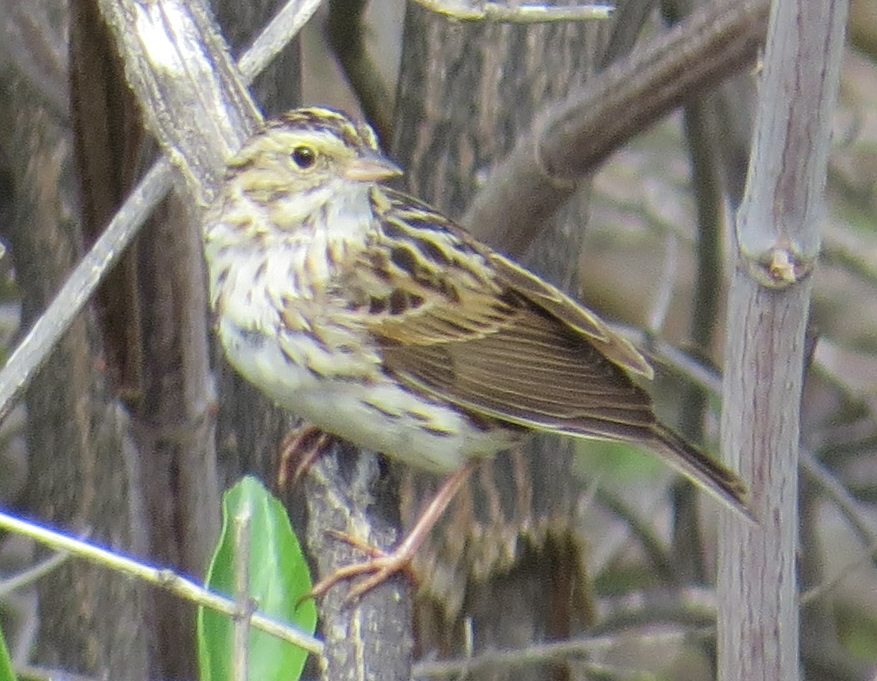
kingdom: Animalia
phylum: Chordata
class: Aves
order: Passeriformes
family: Passerellidae
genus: Passerculus
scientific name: Passerculus sandwichensis
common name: Savannah sparrow
